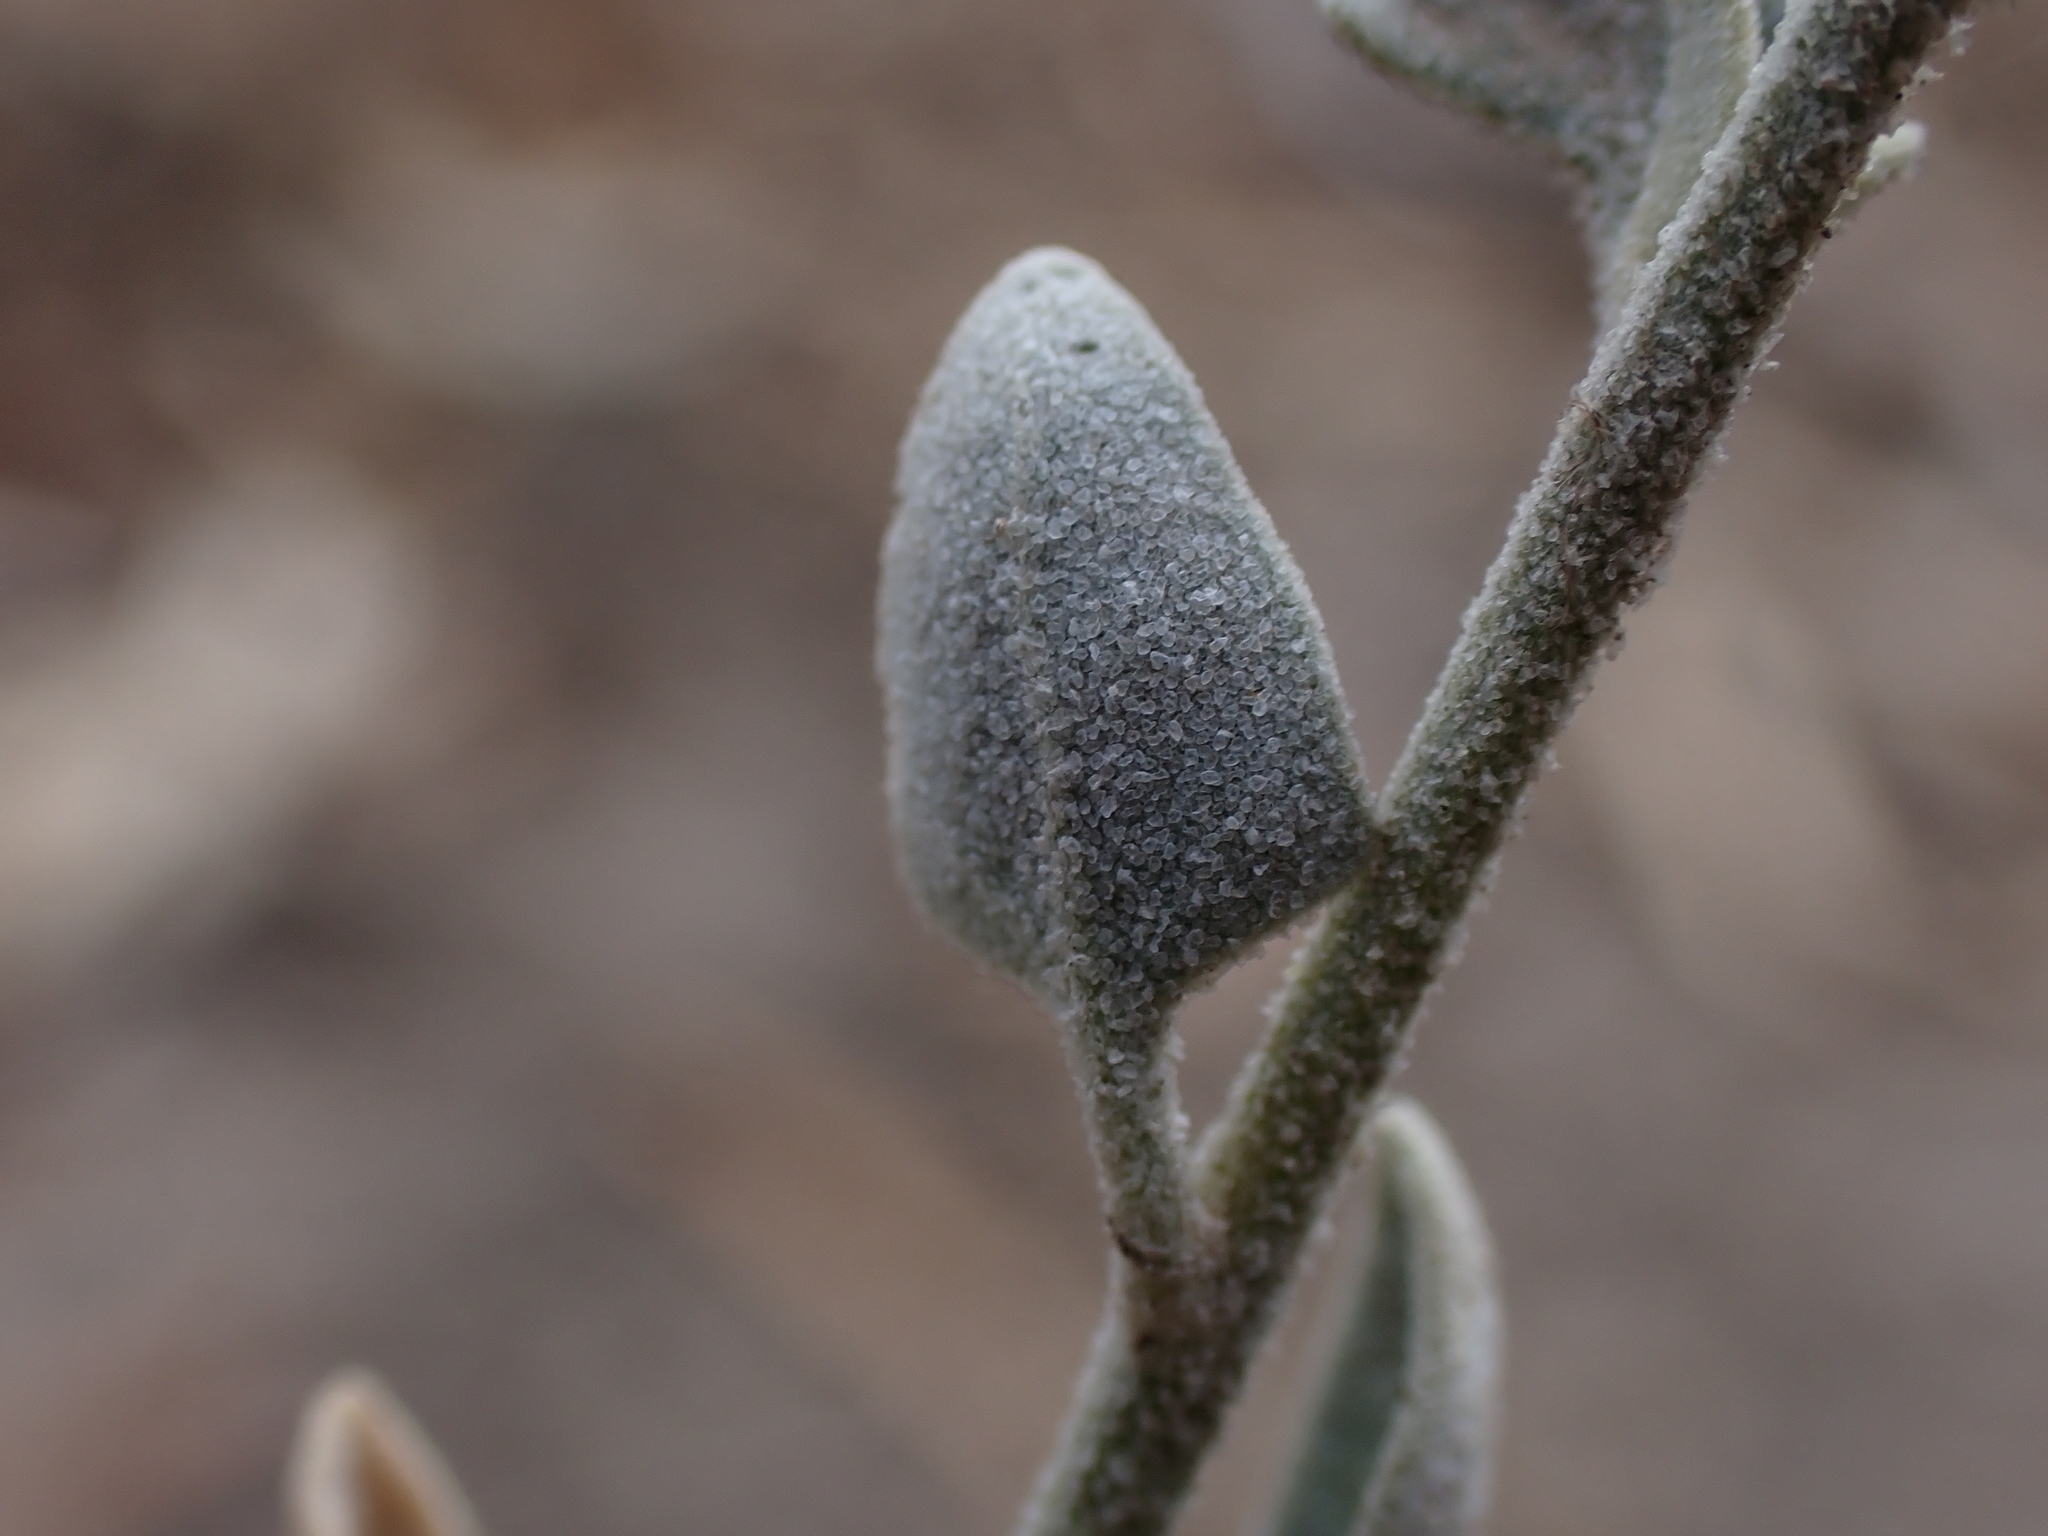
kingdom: Plantae
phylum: Tracheophyta
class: Magnoliopsida
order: Caryophyllales
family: Amaranthaceae
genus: Chenopodium
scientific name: Chenopodium spinescens
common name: Berry-saltbush
